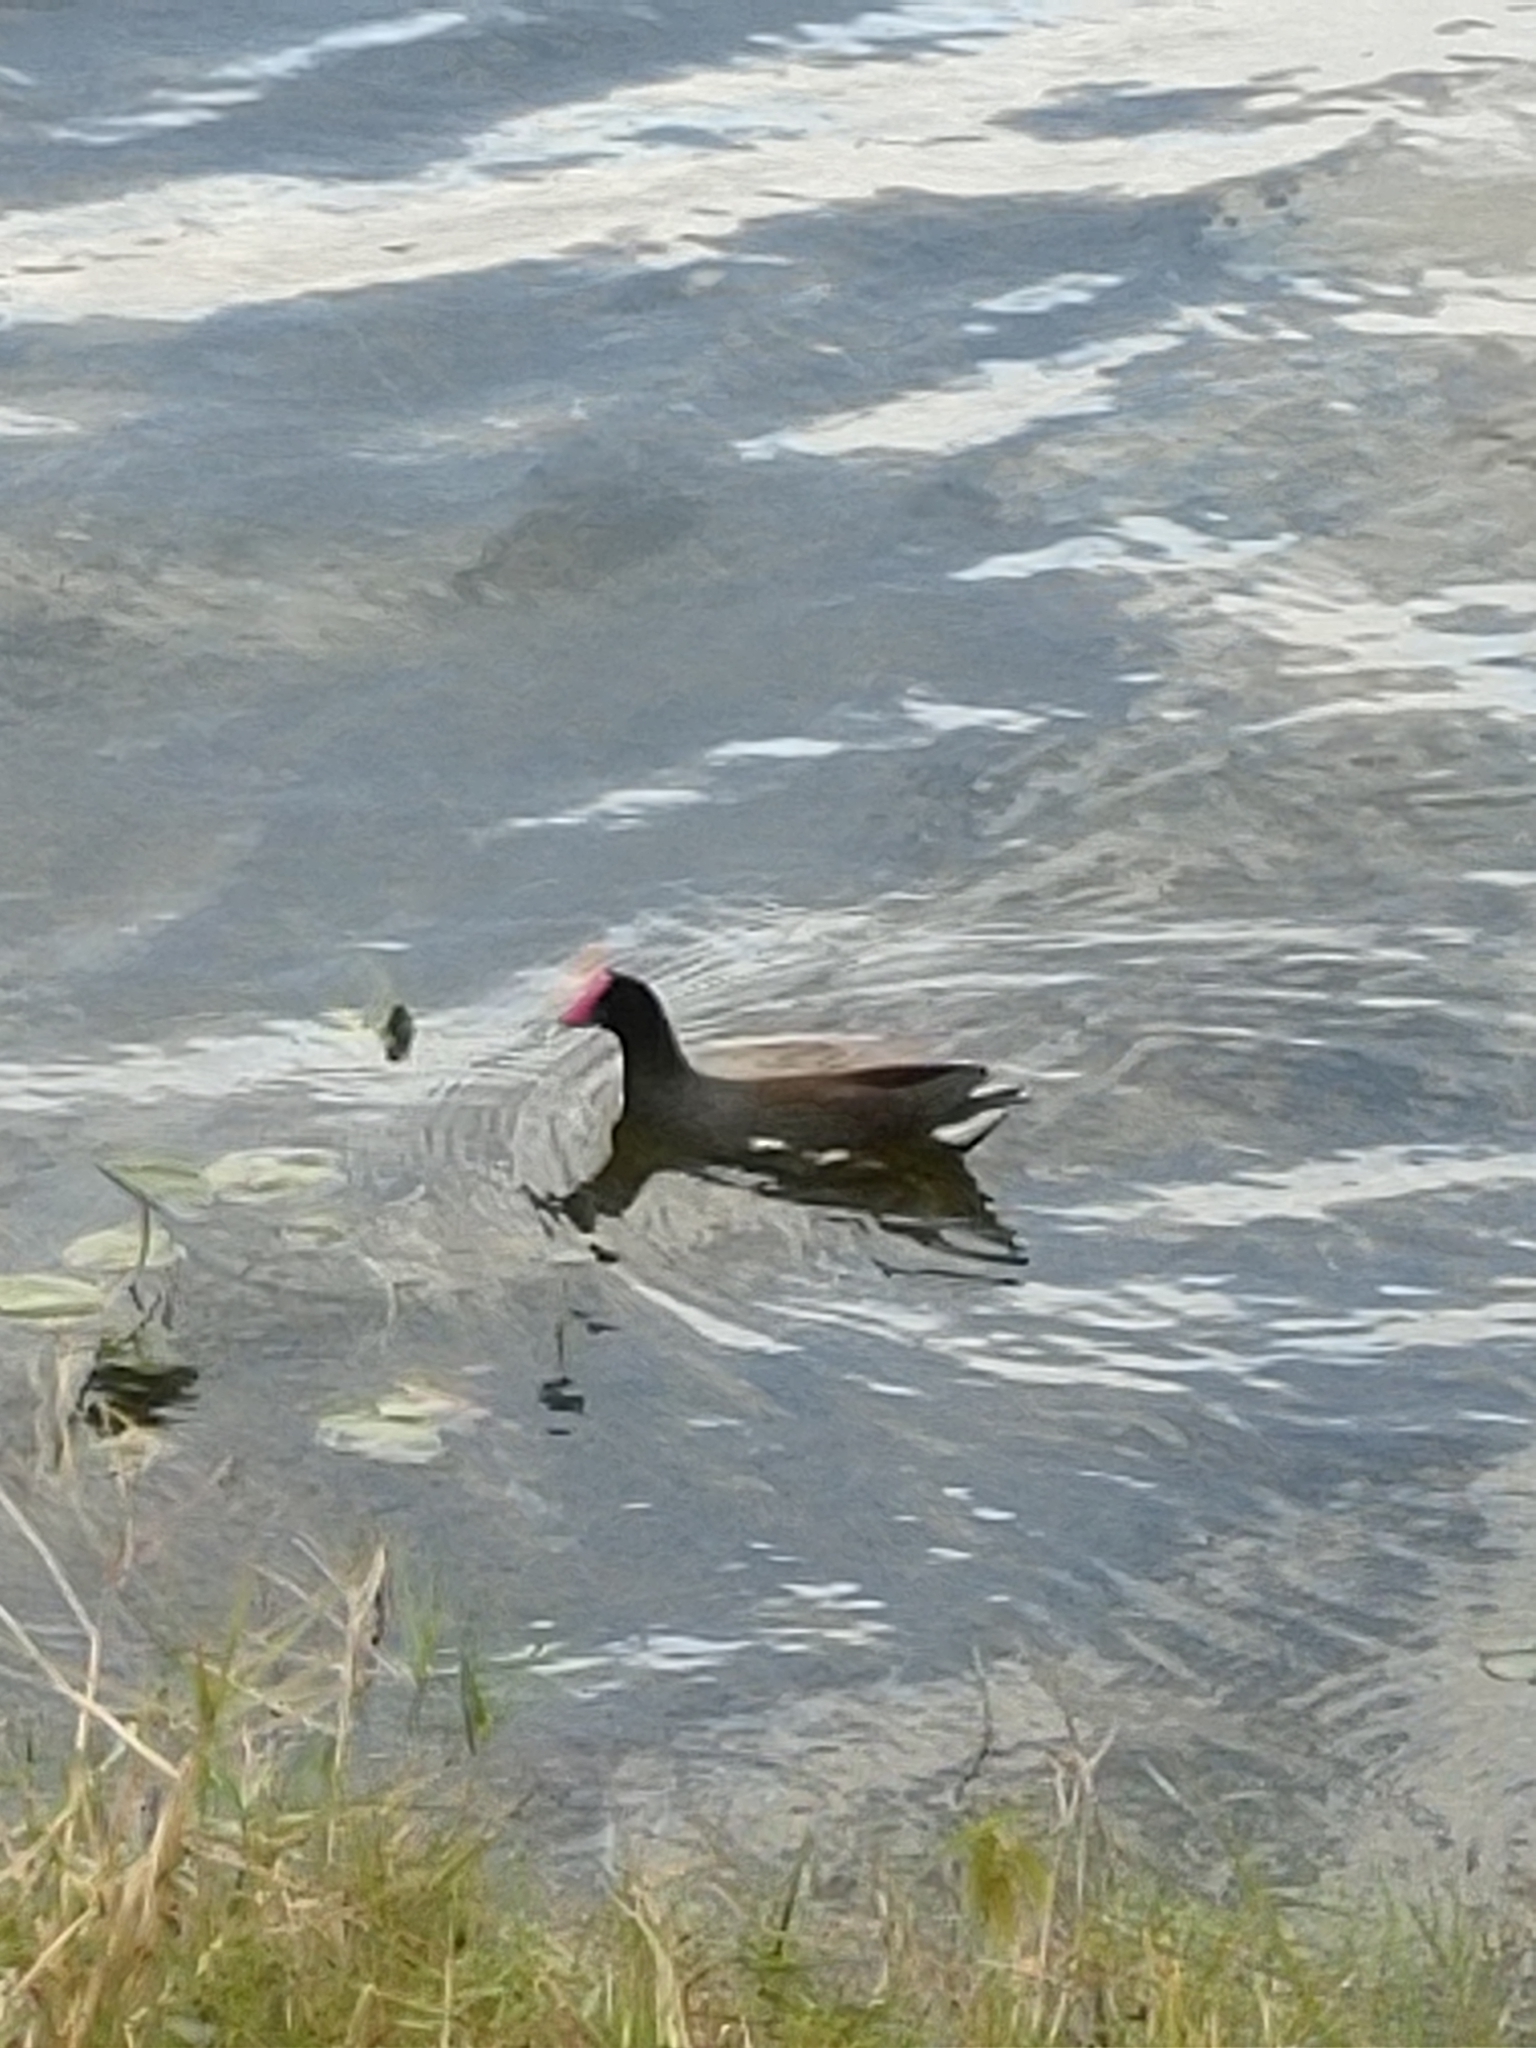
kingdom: Animalia
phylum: Chordata
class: Aves
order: Gruiformes
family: Rallidae
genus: Gallinula
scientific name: Gallinula chloropus
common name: Common moorhen
